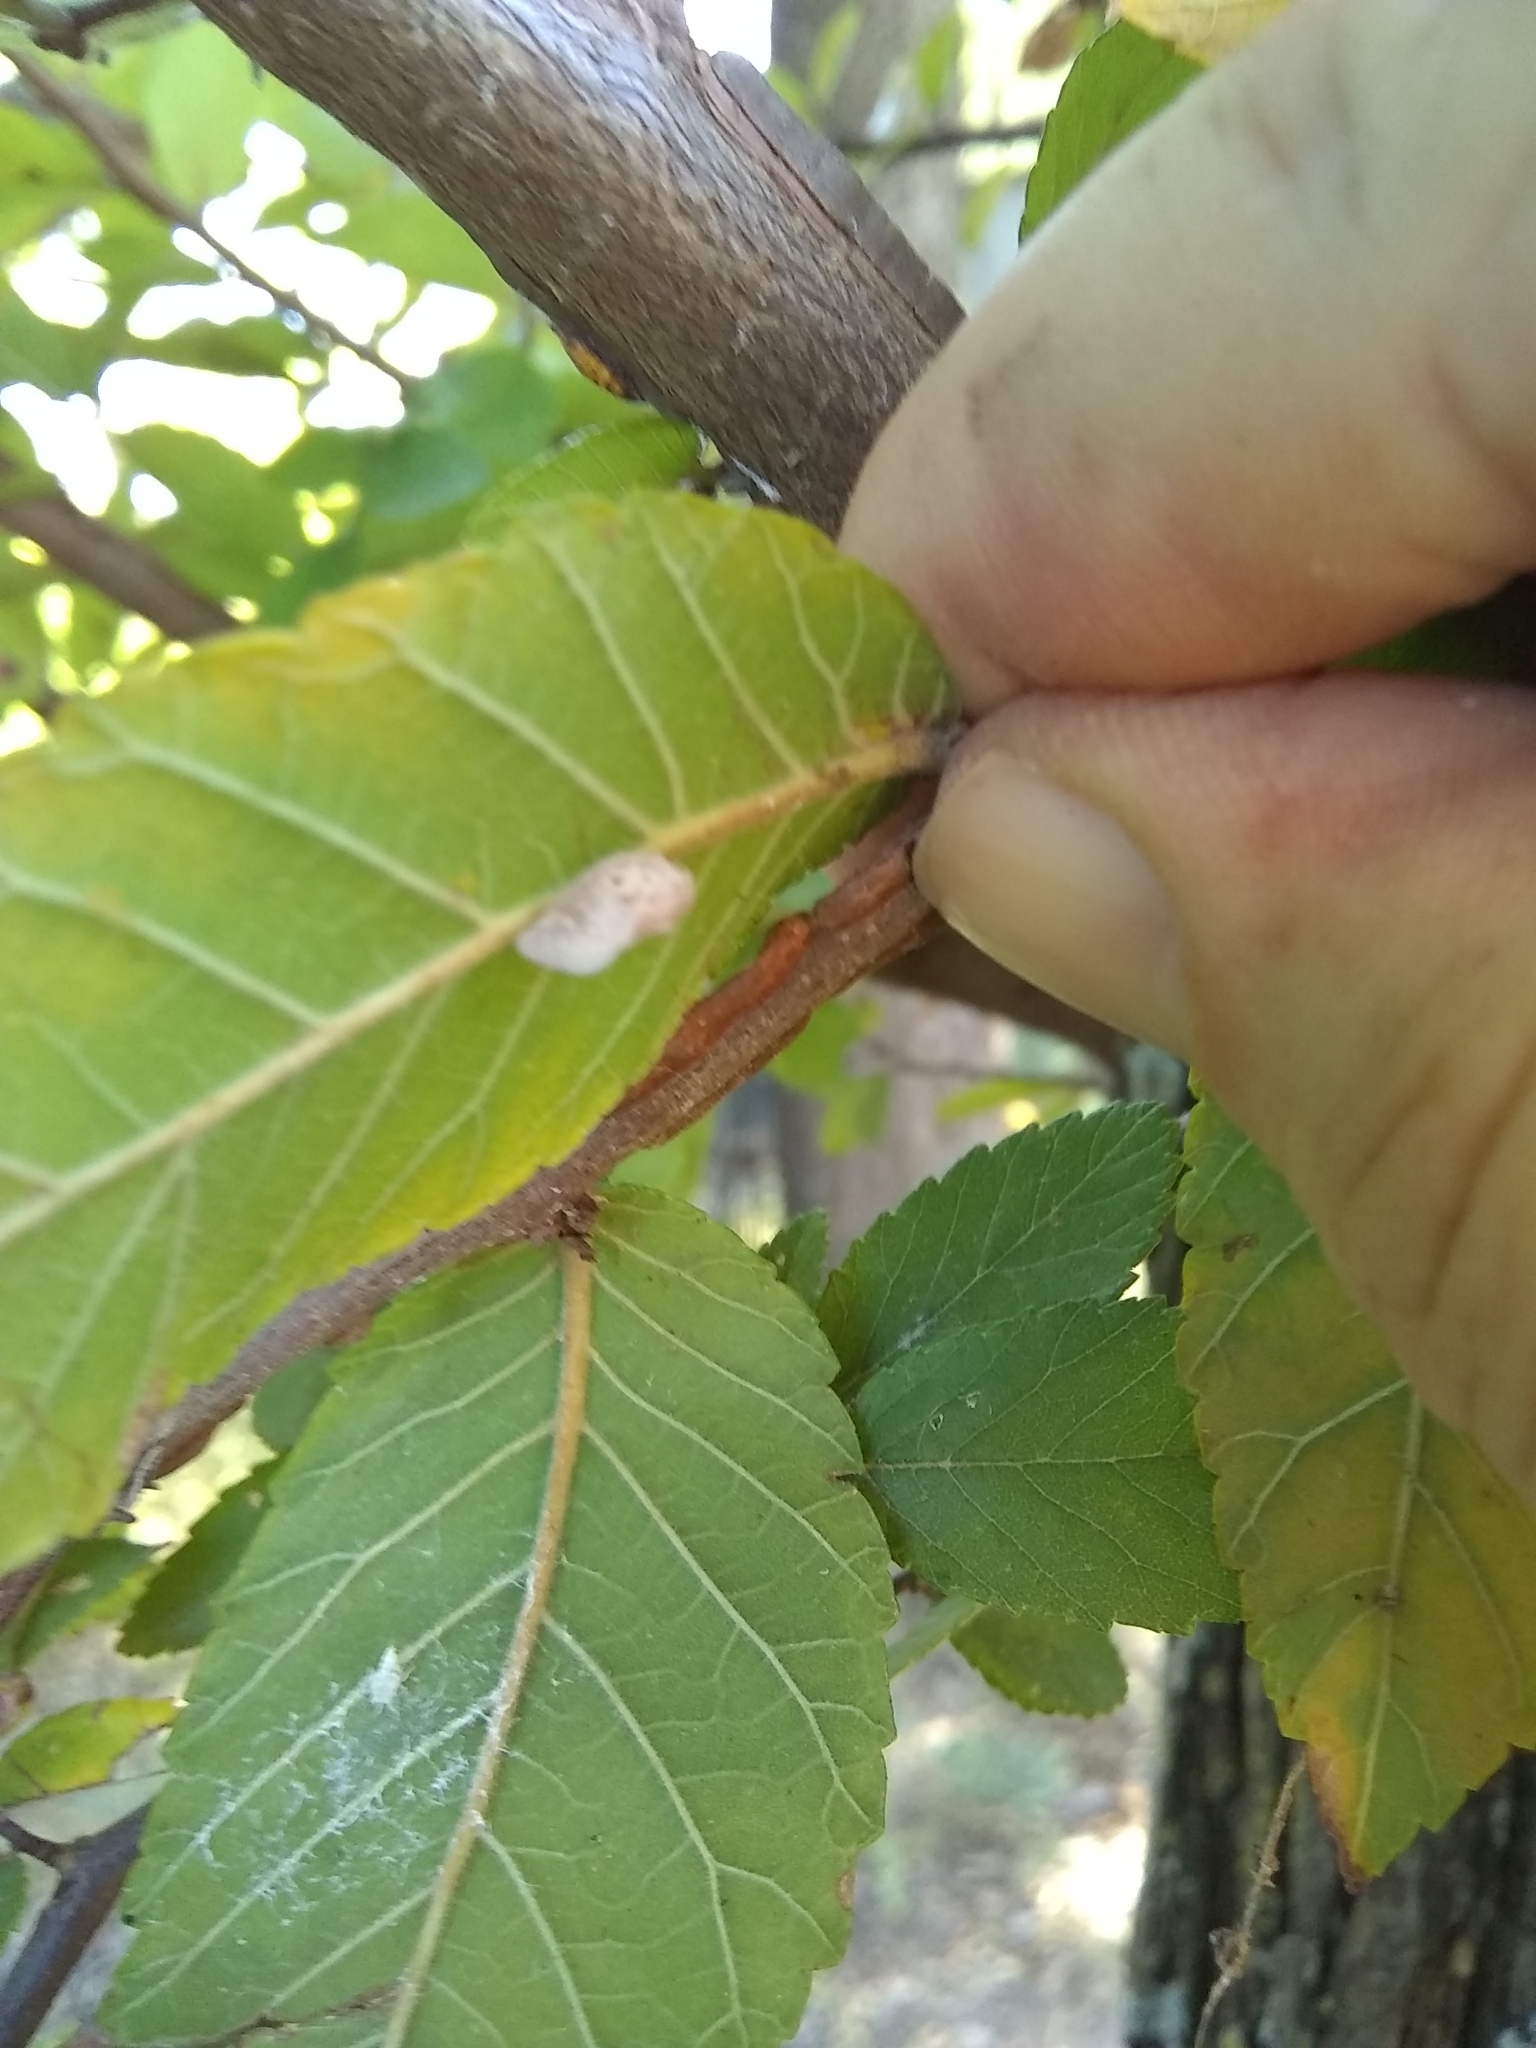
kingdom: Animalia
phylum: Arthropoda
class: Insecta
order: Hemiptera
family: Flatidae
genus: Metcalfa
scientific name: Metcalfa pruinosa
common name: Citrus flatid planthopper
